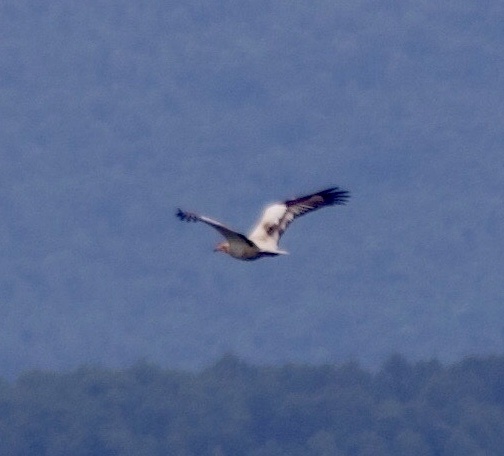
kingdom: Animalia
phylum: Chordata
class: Aves
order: Accipitriformes
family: Accipitridae
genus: Neophron
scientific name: Neophron percnopterus
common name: Egyptian vulture
